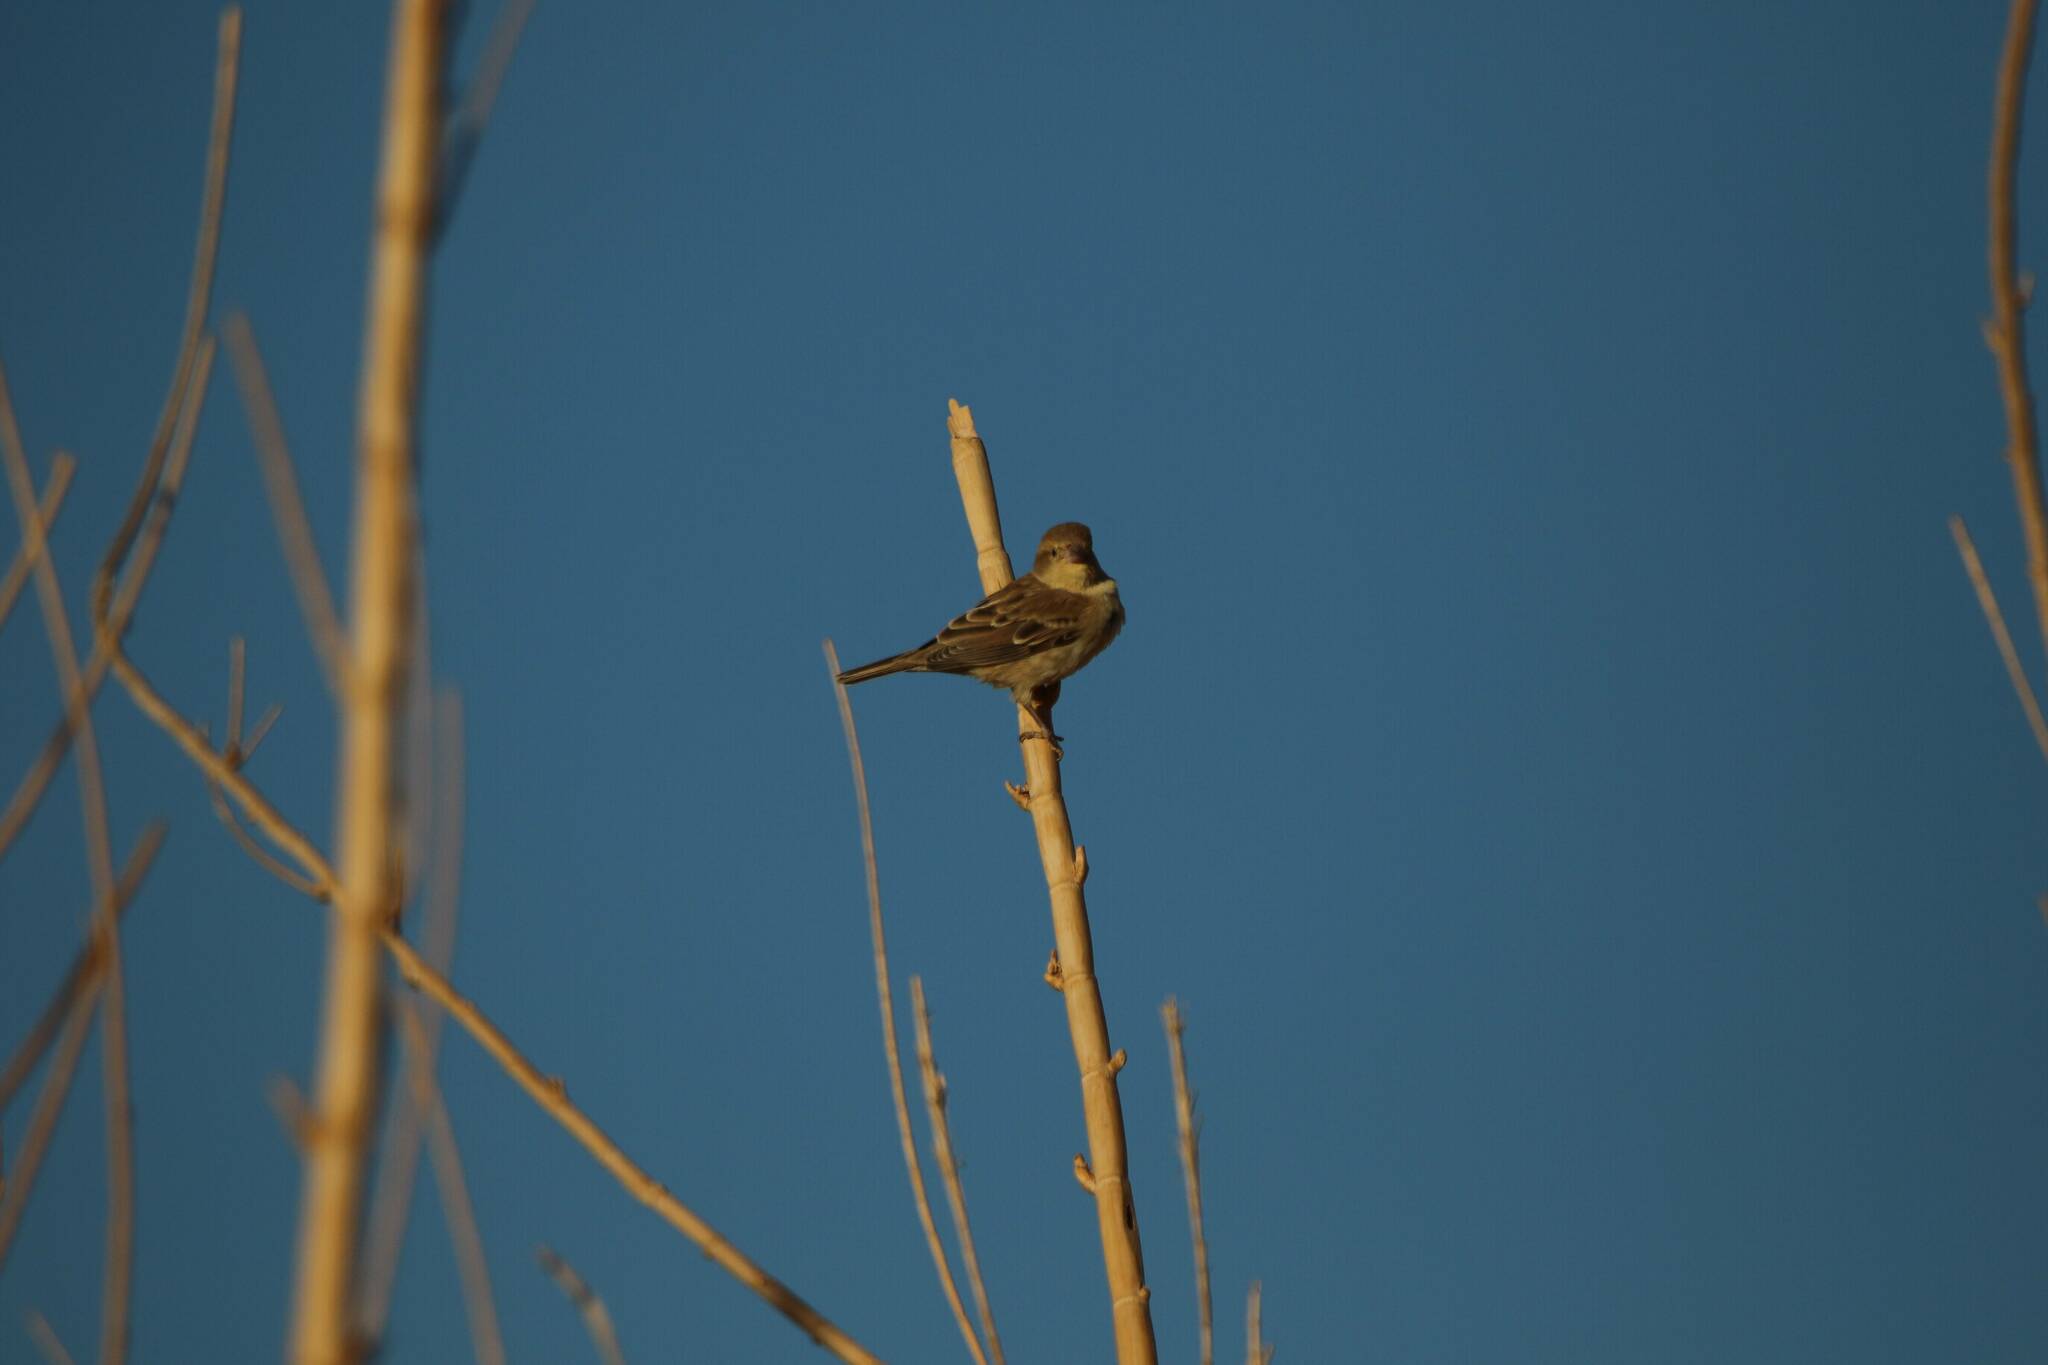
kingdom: Animalia
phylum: Chordata
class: Aves
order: Passeriformes
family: Passeridae
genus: Passer
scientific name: Passer domesticus
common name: House sparrow
